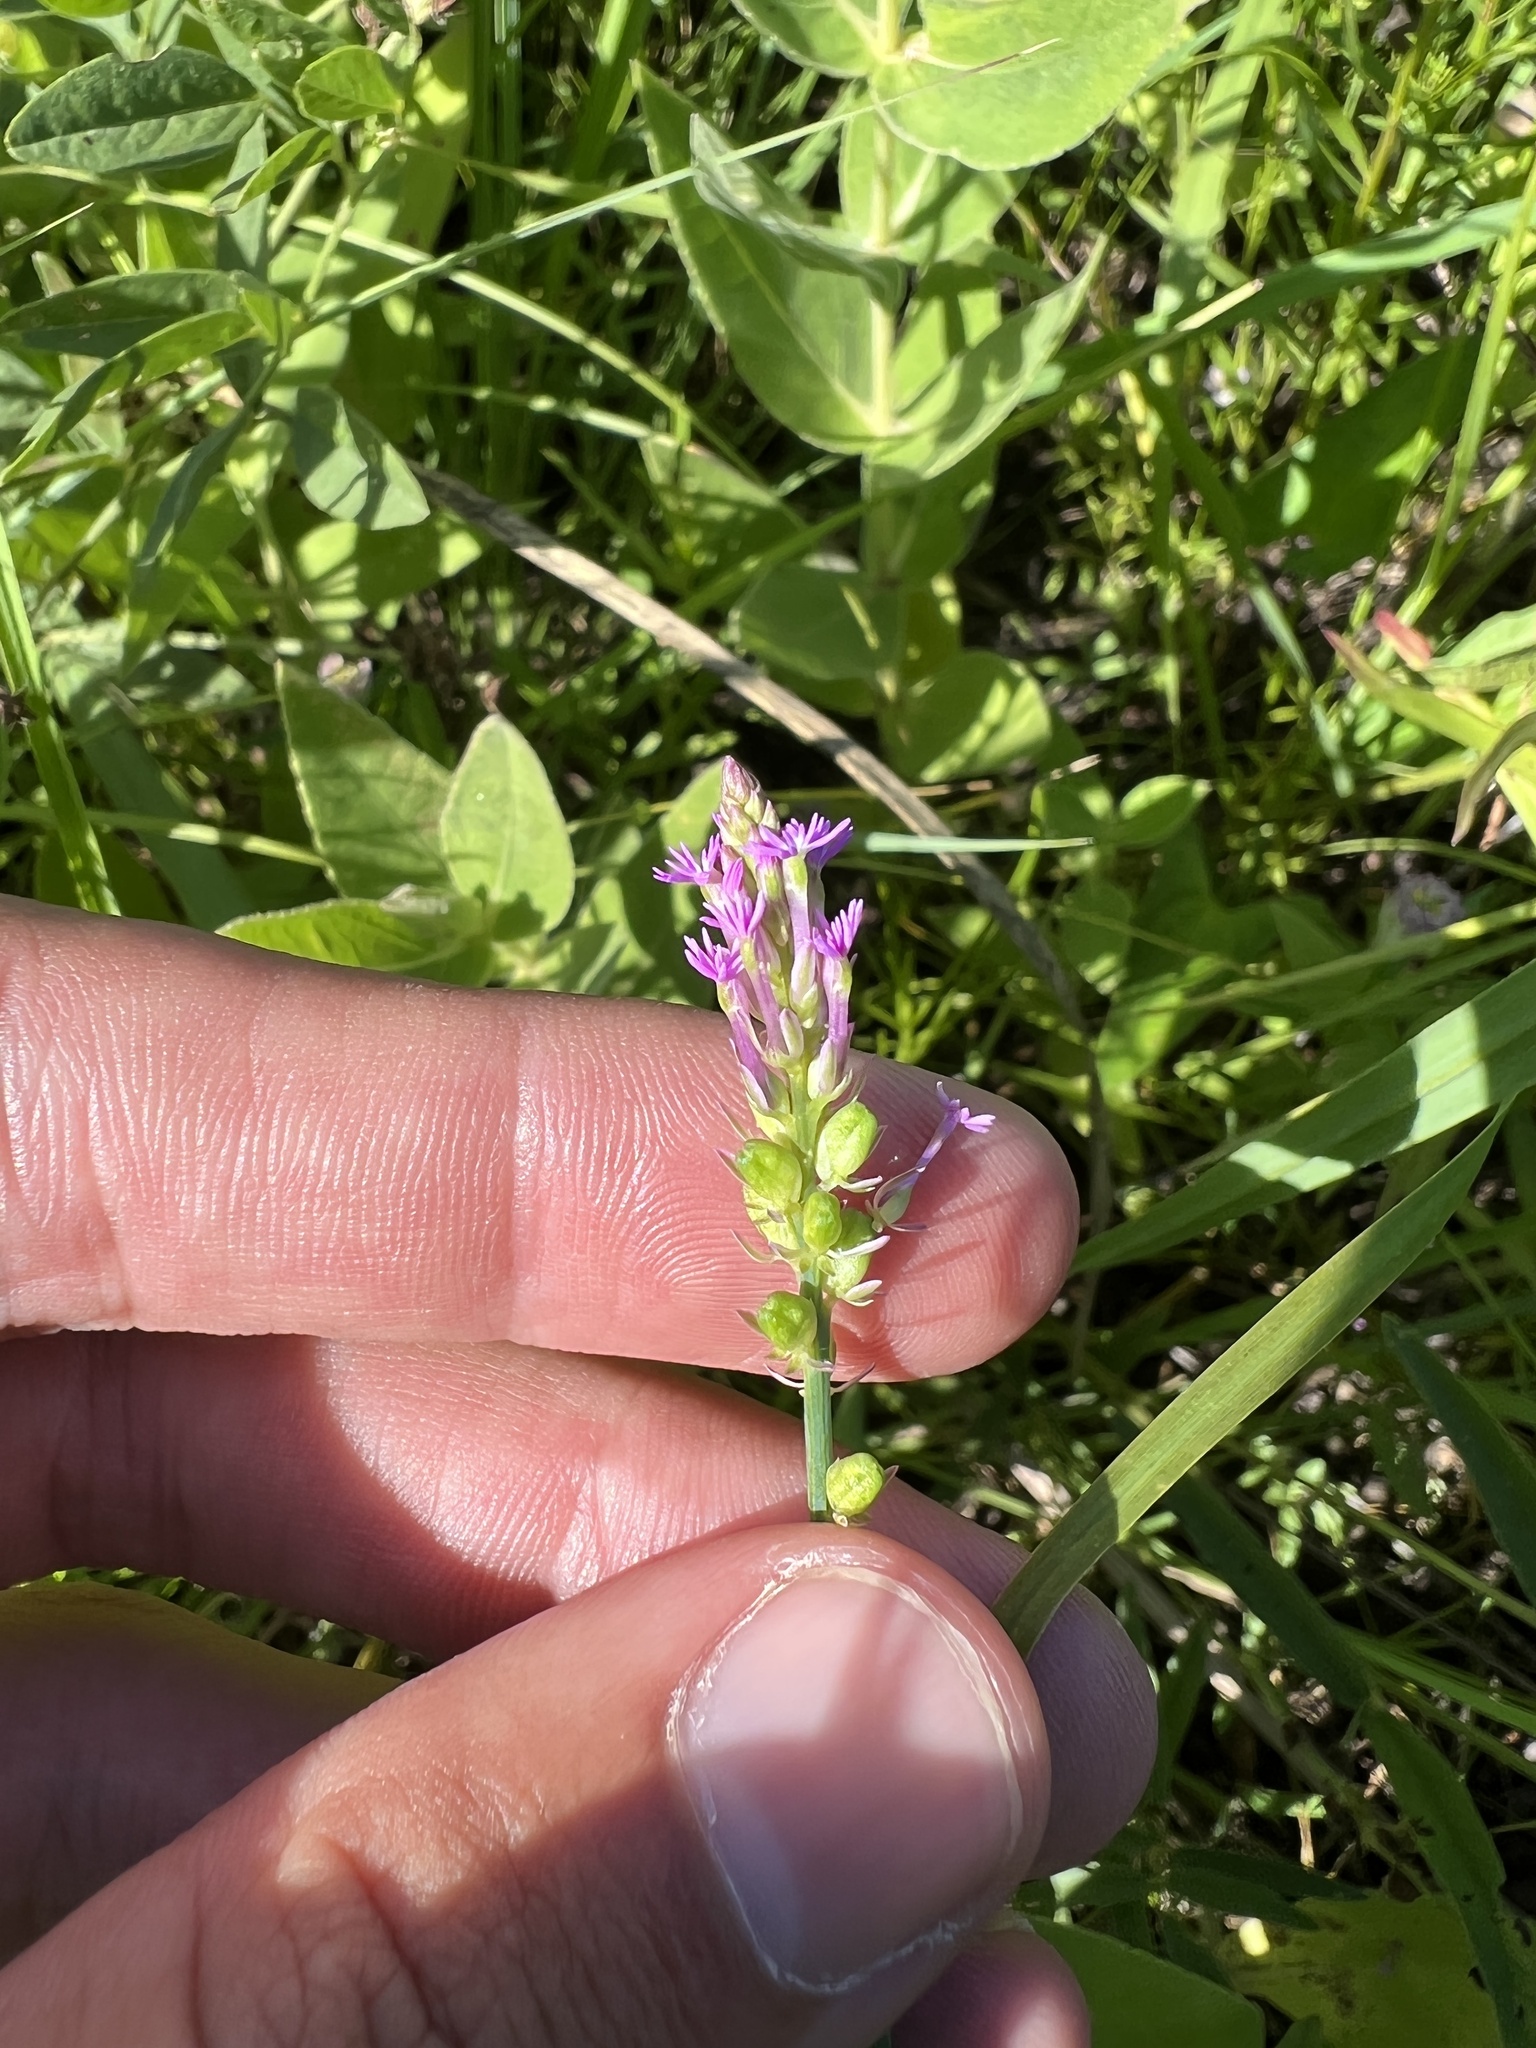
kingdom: Plantae
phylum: Tracheophyta
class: Magnoliopsida
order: Fabales
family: Polygalaceae
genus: Polygala
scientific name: Polygala incarnata
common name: Pink milkwort
